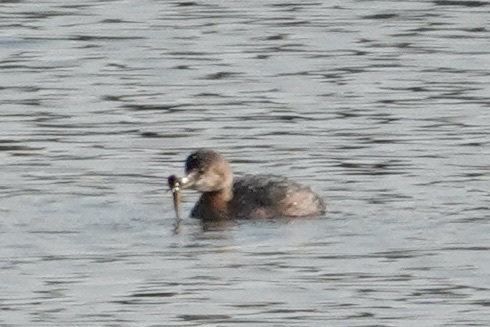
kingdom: Animalia
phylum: Chordata
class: Aves
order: Podicipediformes
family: Podicipedidae
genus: Podilymbus
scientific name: Podilymbus podiceps
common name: Pied-billed grebe
